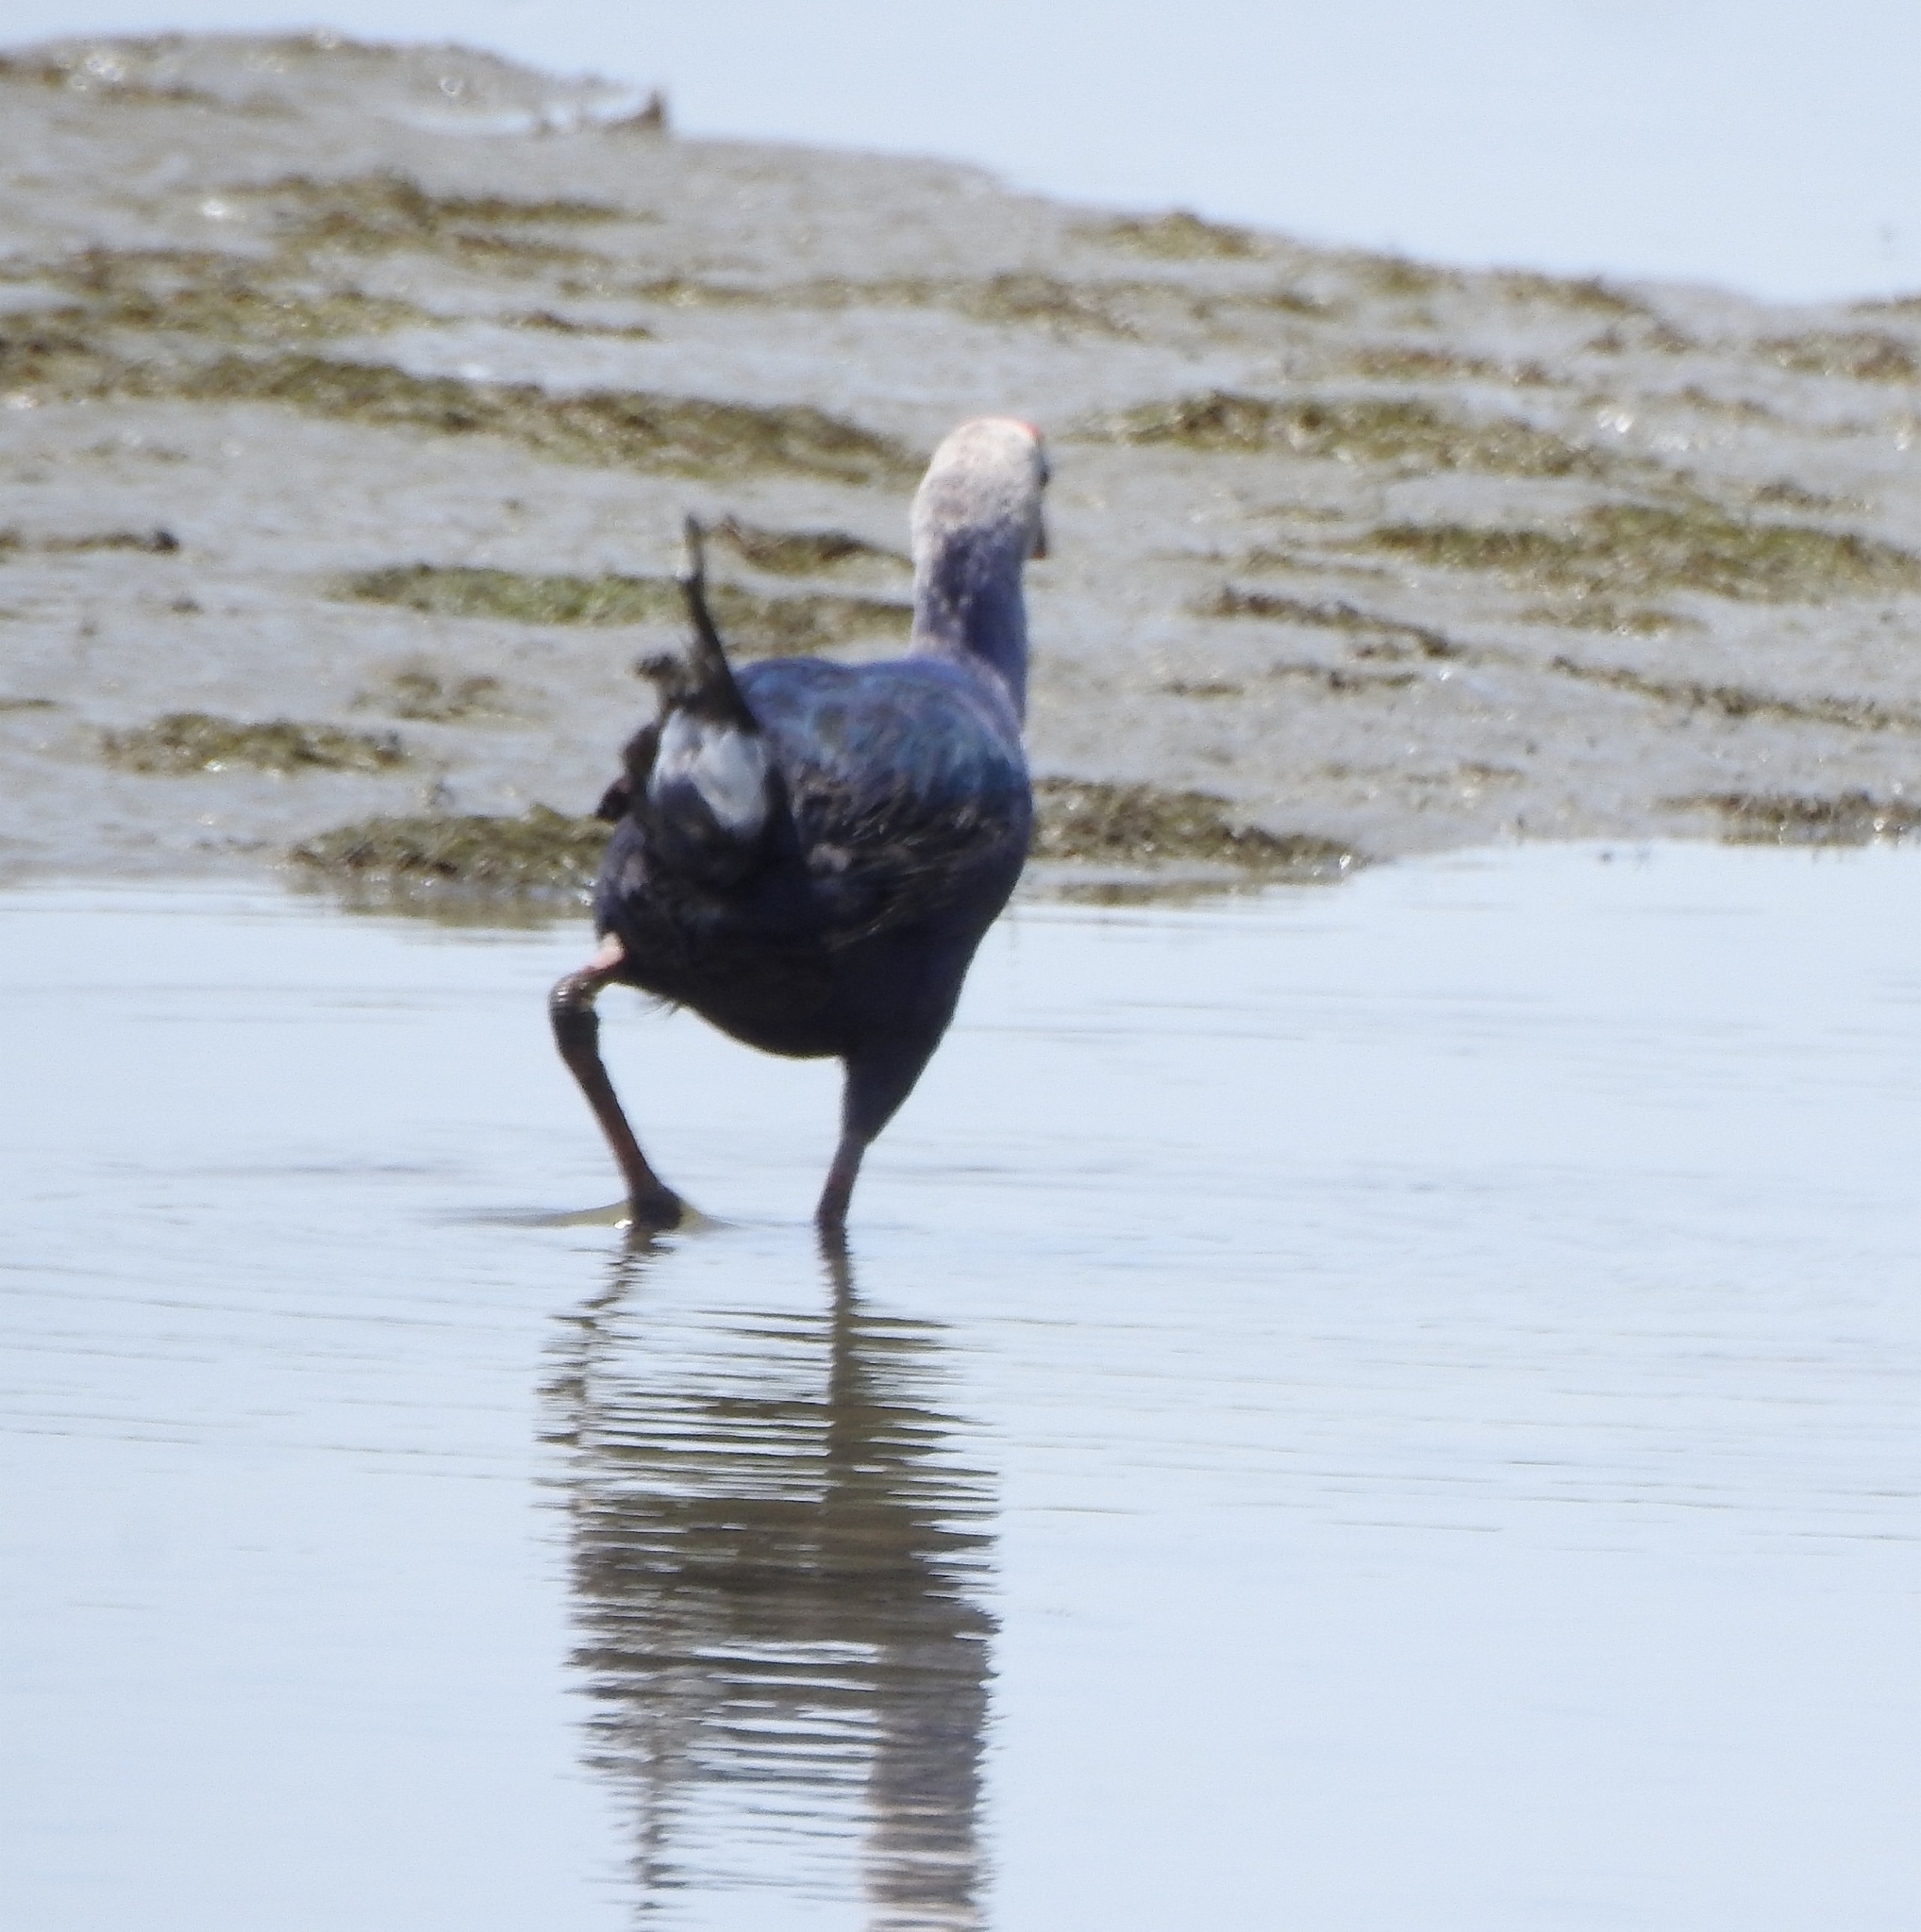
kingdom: Animalia
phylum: Chordata
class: Aves
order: Gruiformes
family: Rallidae
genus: Porphyrio
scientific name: Porphyrio porphyrio
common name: Purple swamphen
